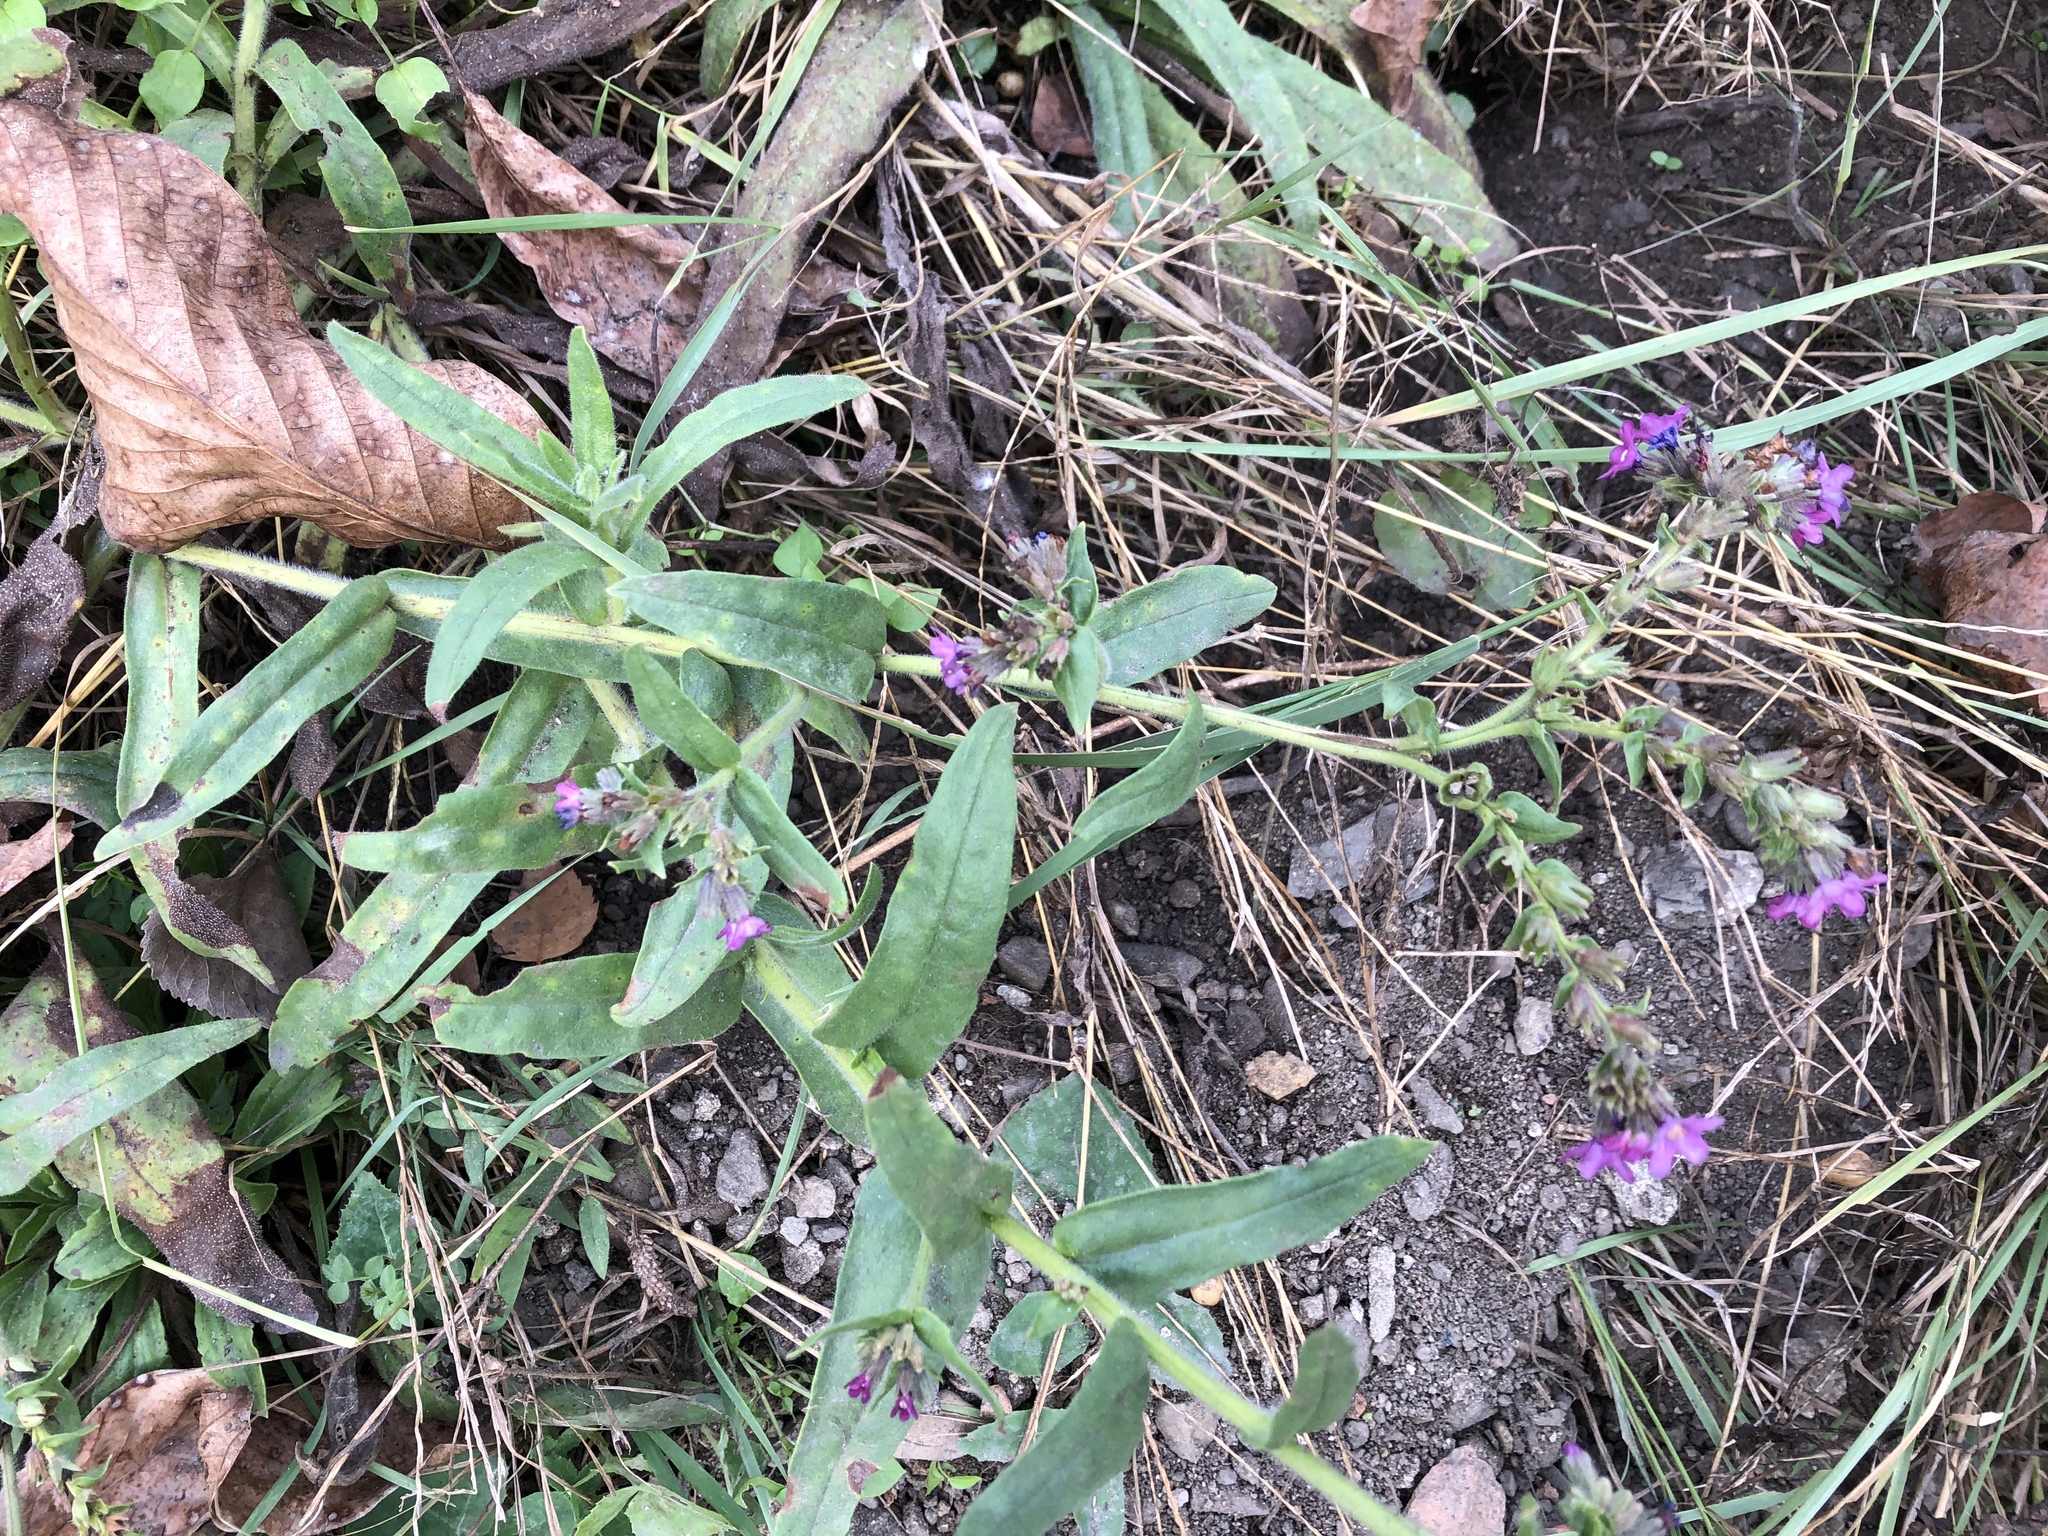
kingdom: Plantae
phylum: Tracheophyta
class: Magnoliopsida
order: Boraginales
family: Boraginaceae
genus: Anchusa
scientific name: Anchusa officinalis
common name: Alkanet
